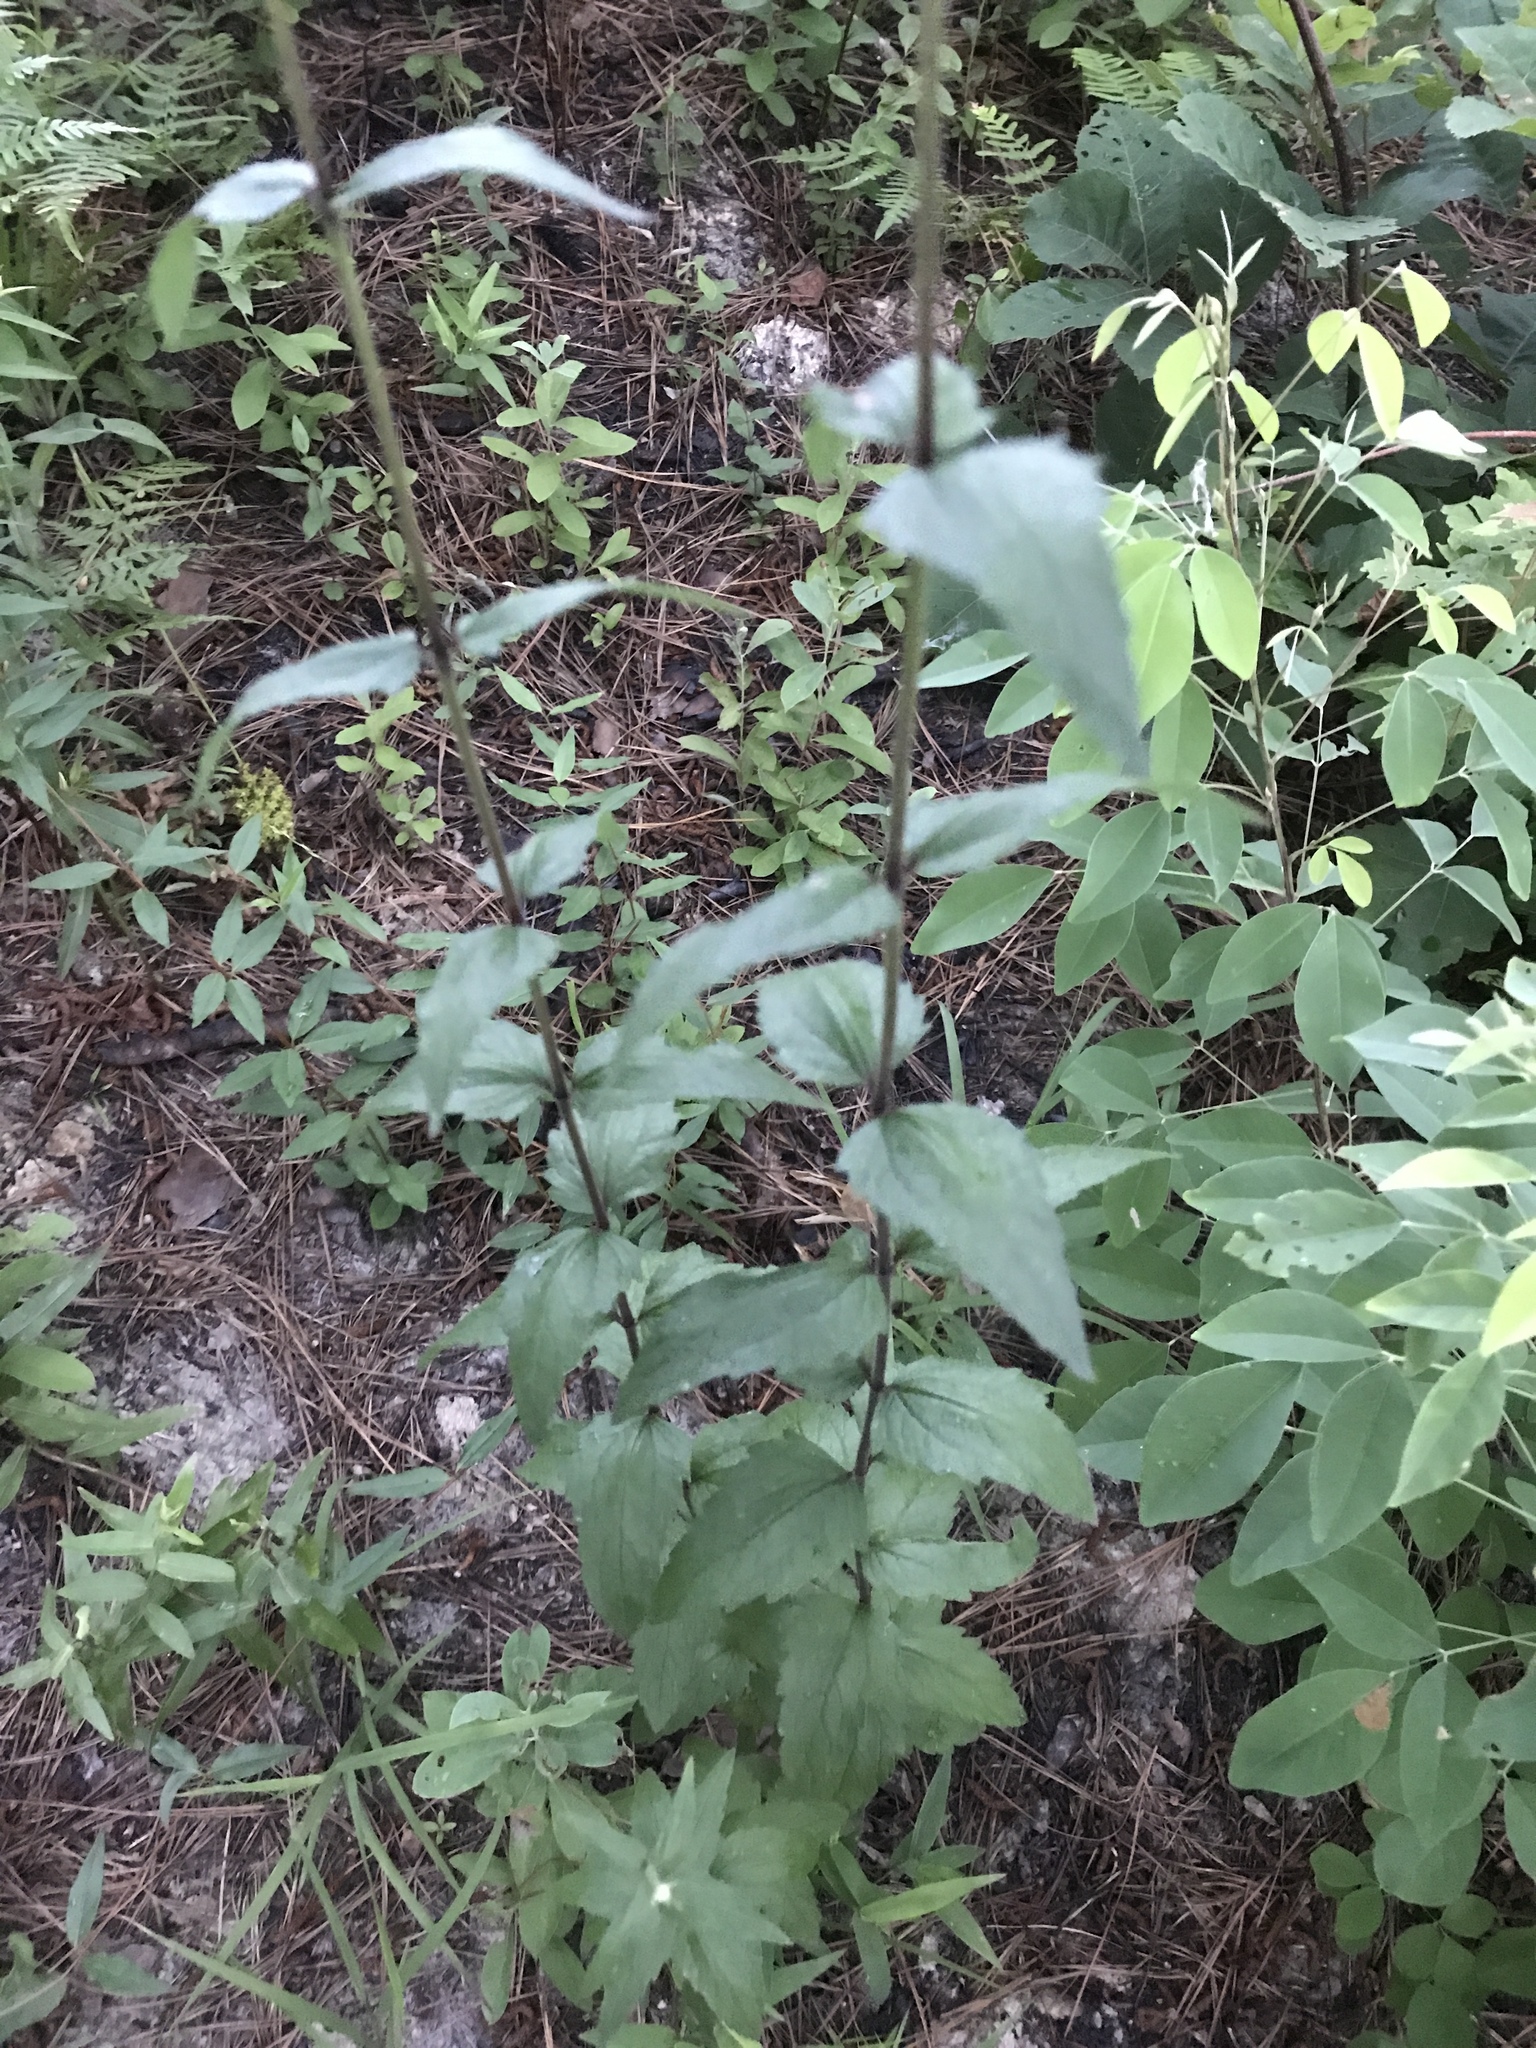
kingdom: Plantae
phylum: Tracheophyta
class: Magnoliopsida
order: Asterales
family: Asteraceae
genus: Eupatorium
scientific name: Eupatorium pilosum
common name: Rough boneset
